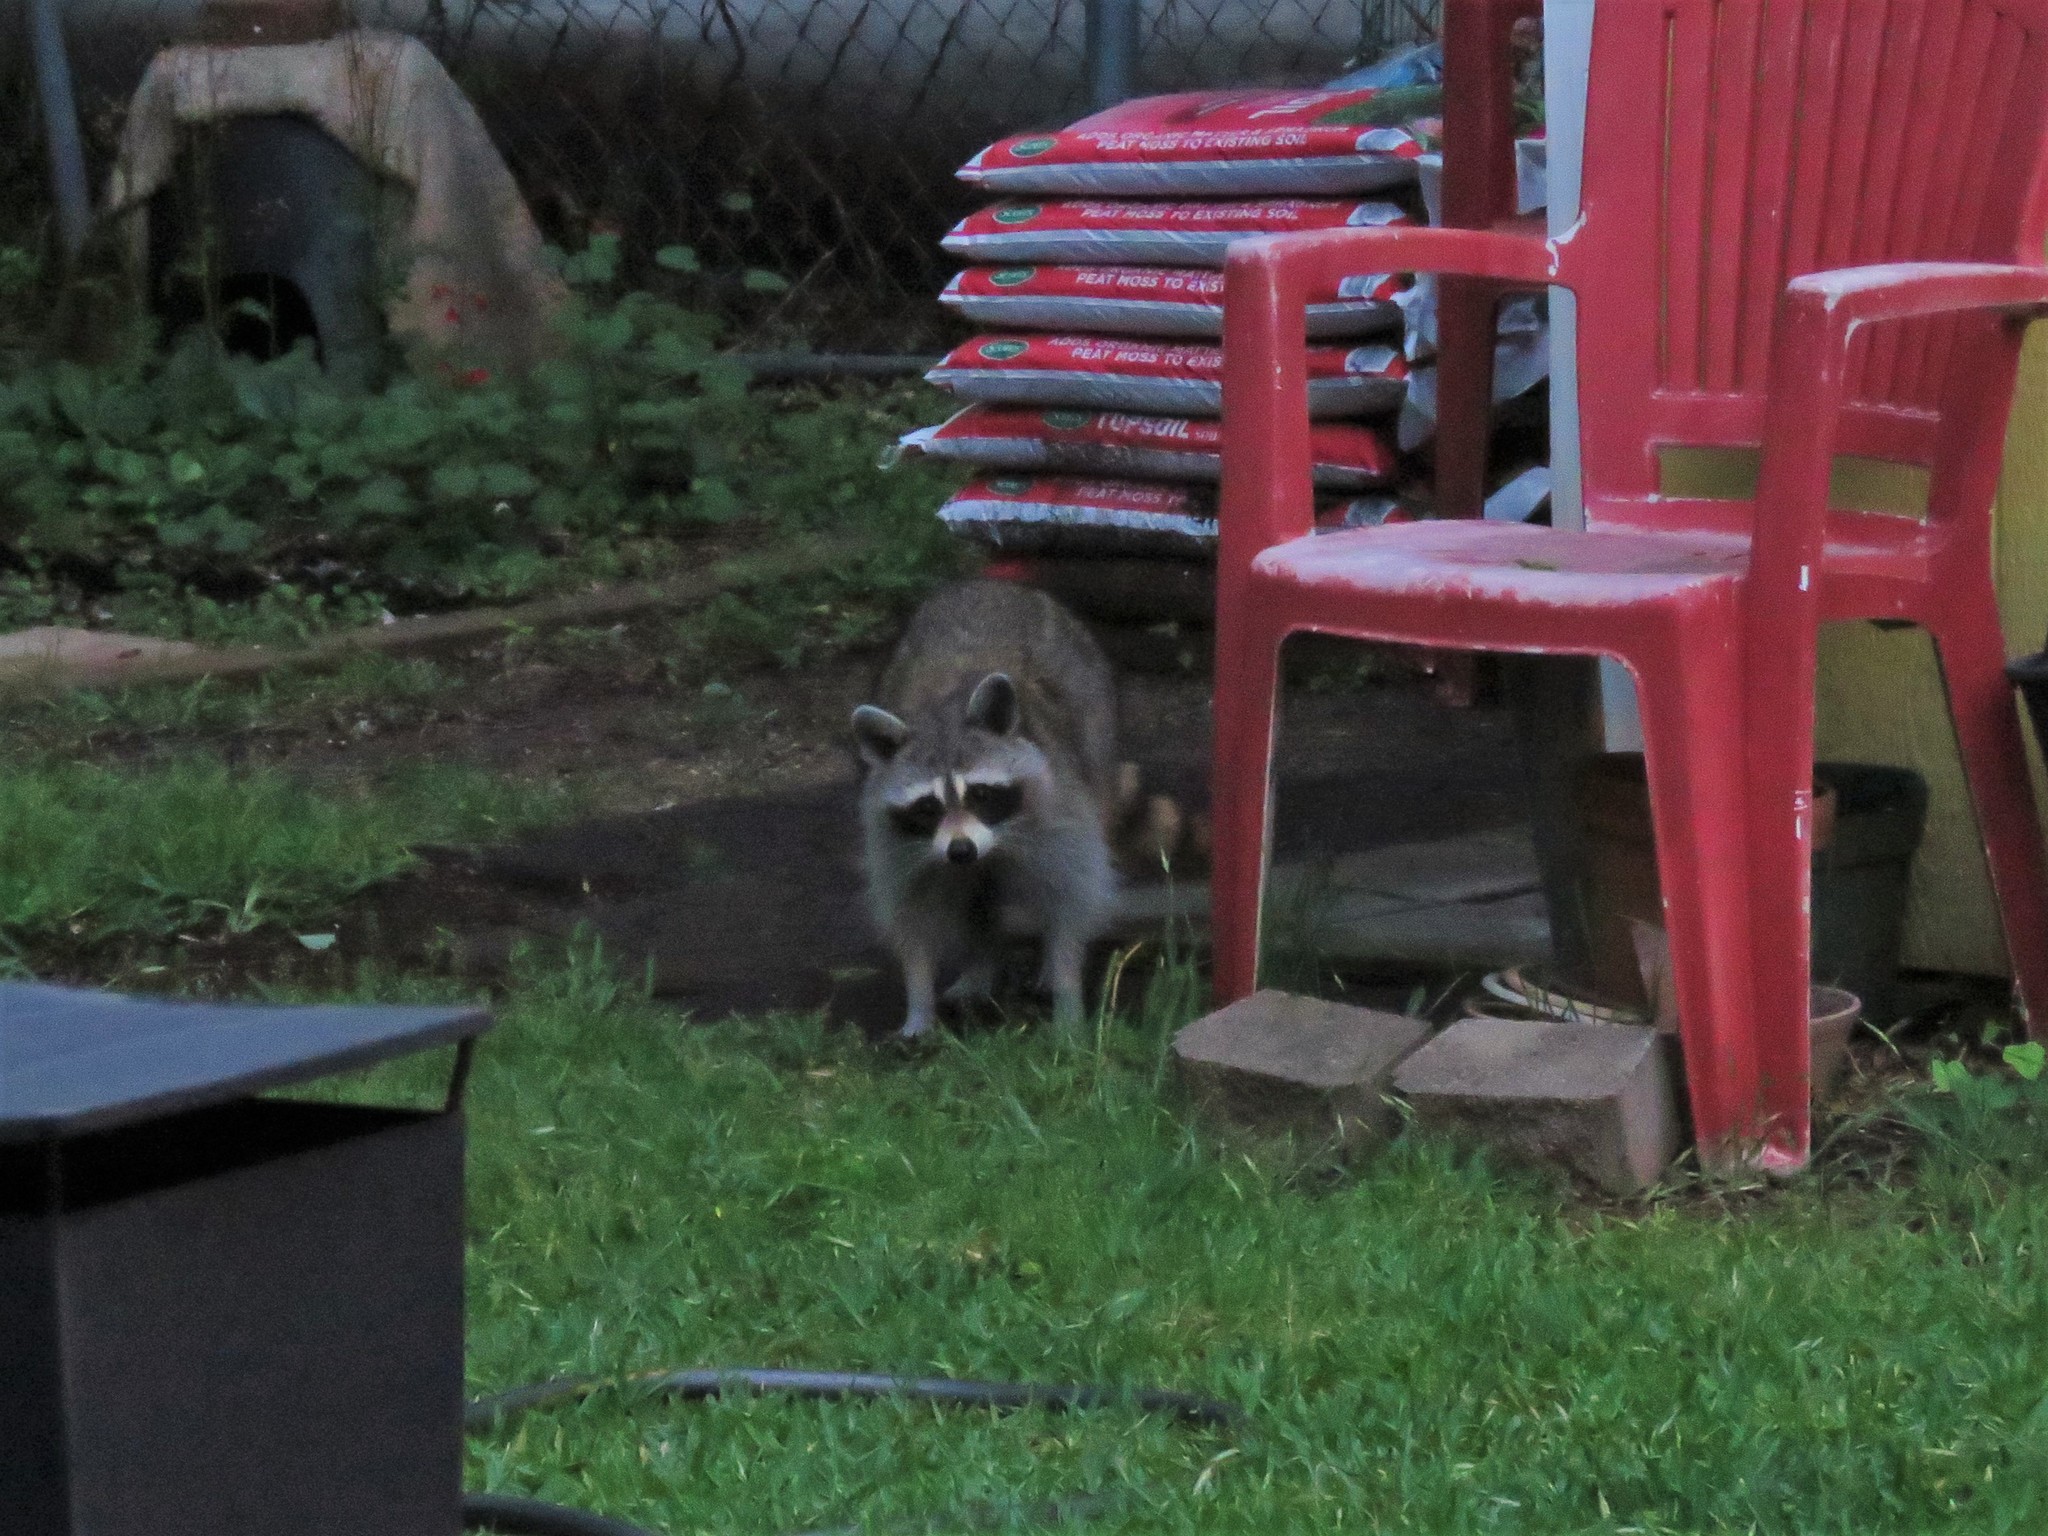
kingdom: Animalia
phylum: Chordata
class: Mammalia
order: Carnivora
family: Procyonidae
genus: Procyon
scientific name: Procyon lotor
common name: Raccoon
